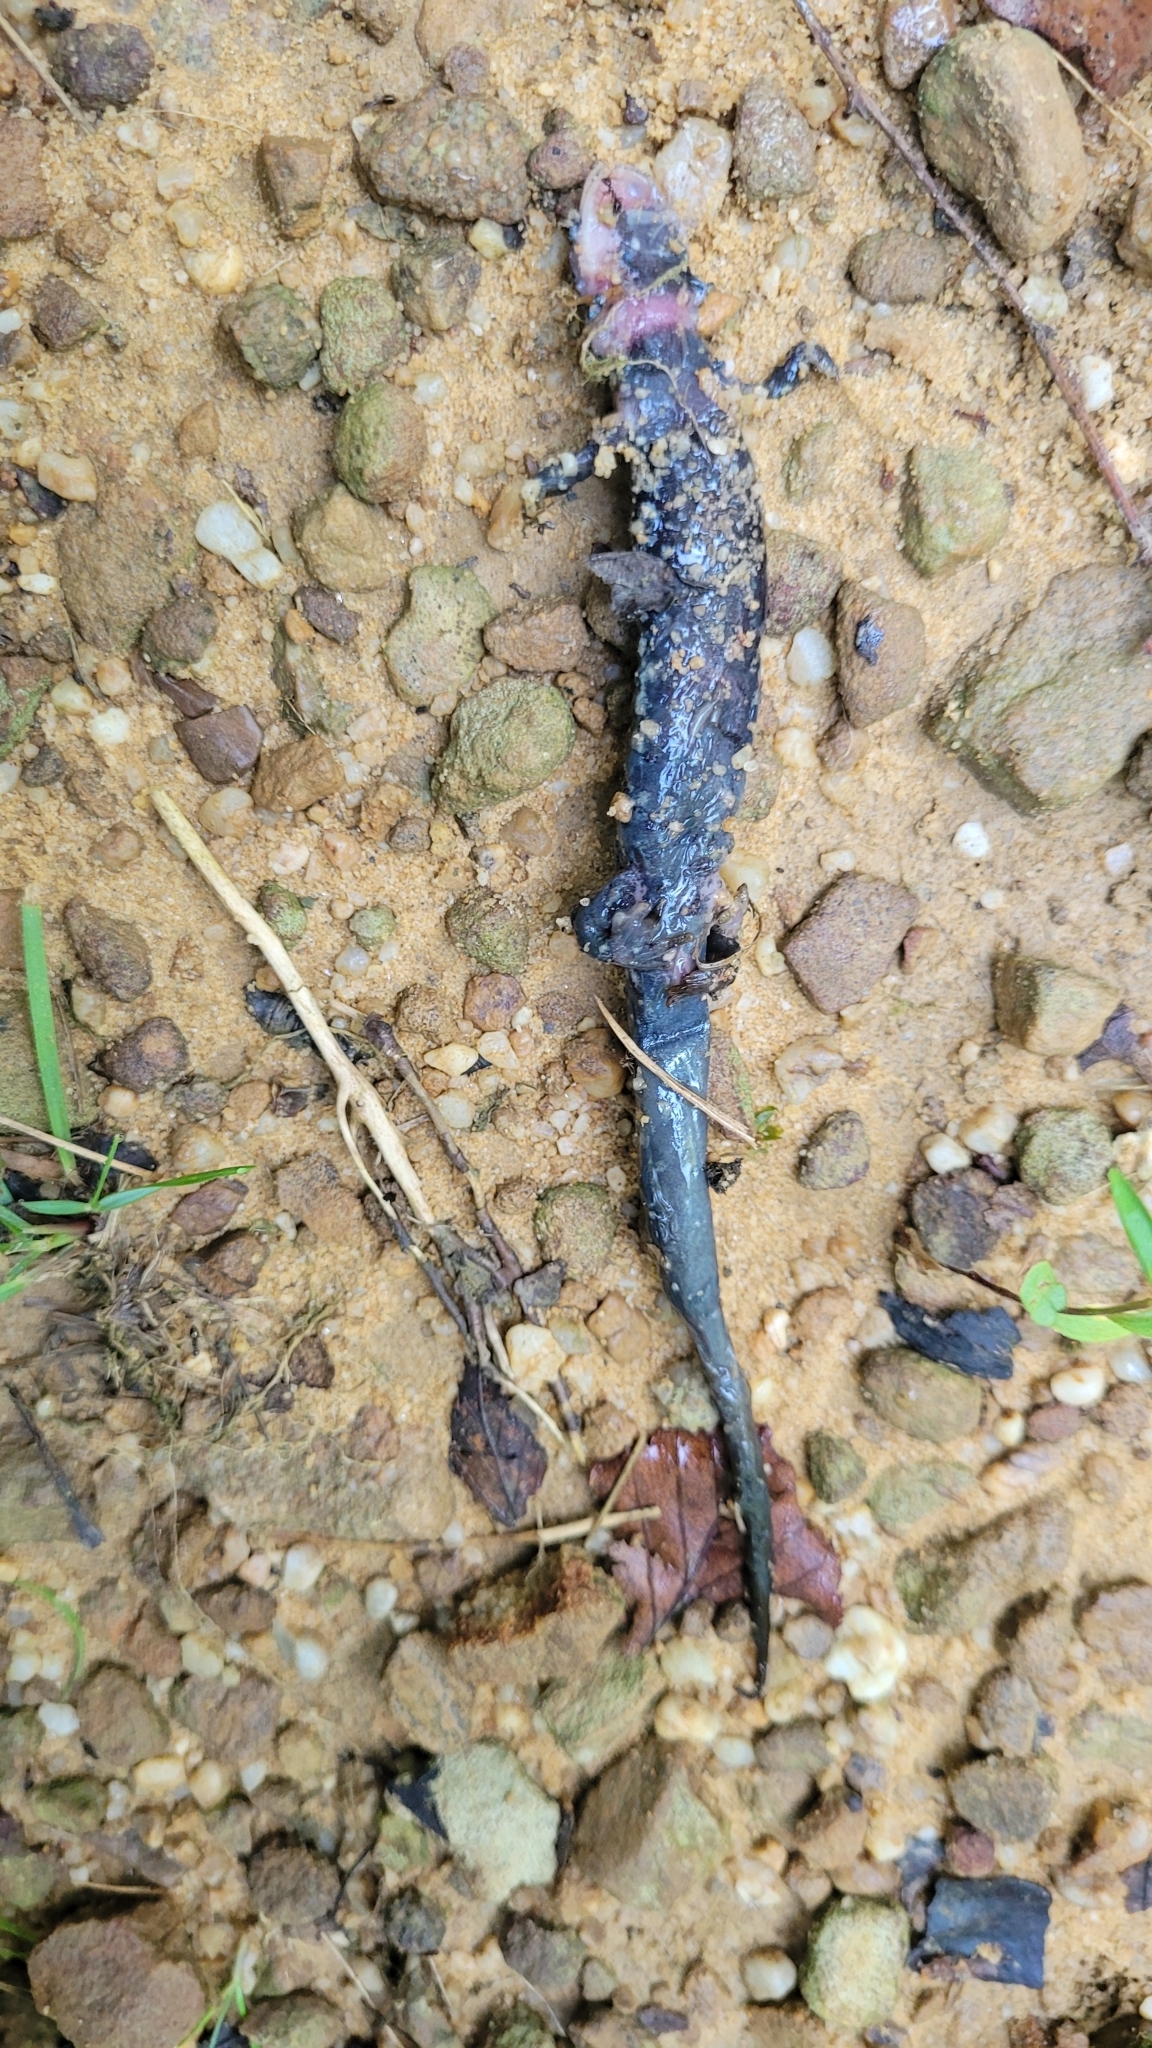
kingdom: Animalia
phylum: Chordata
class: Amphibia
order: Caudata
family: Plethodontidae
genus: Plethodon
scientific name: Plethodon glutinosus
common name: Northern slimy salamander
